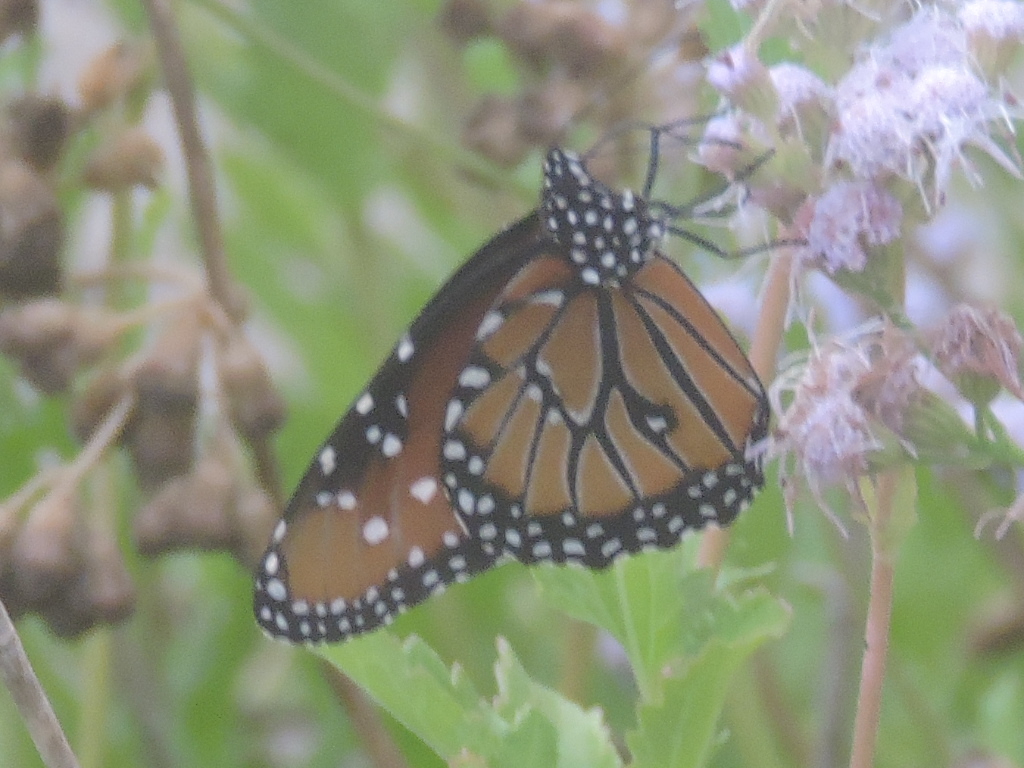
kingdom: Animalia
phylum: Arthropoda
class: Insecta
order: Lepidoptera
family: Nymphalidae
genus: Danaus
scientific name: Danaus gilippus
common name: Queen
